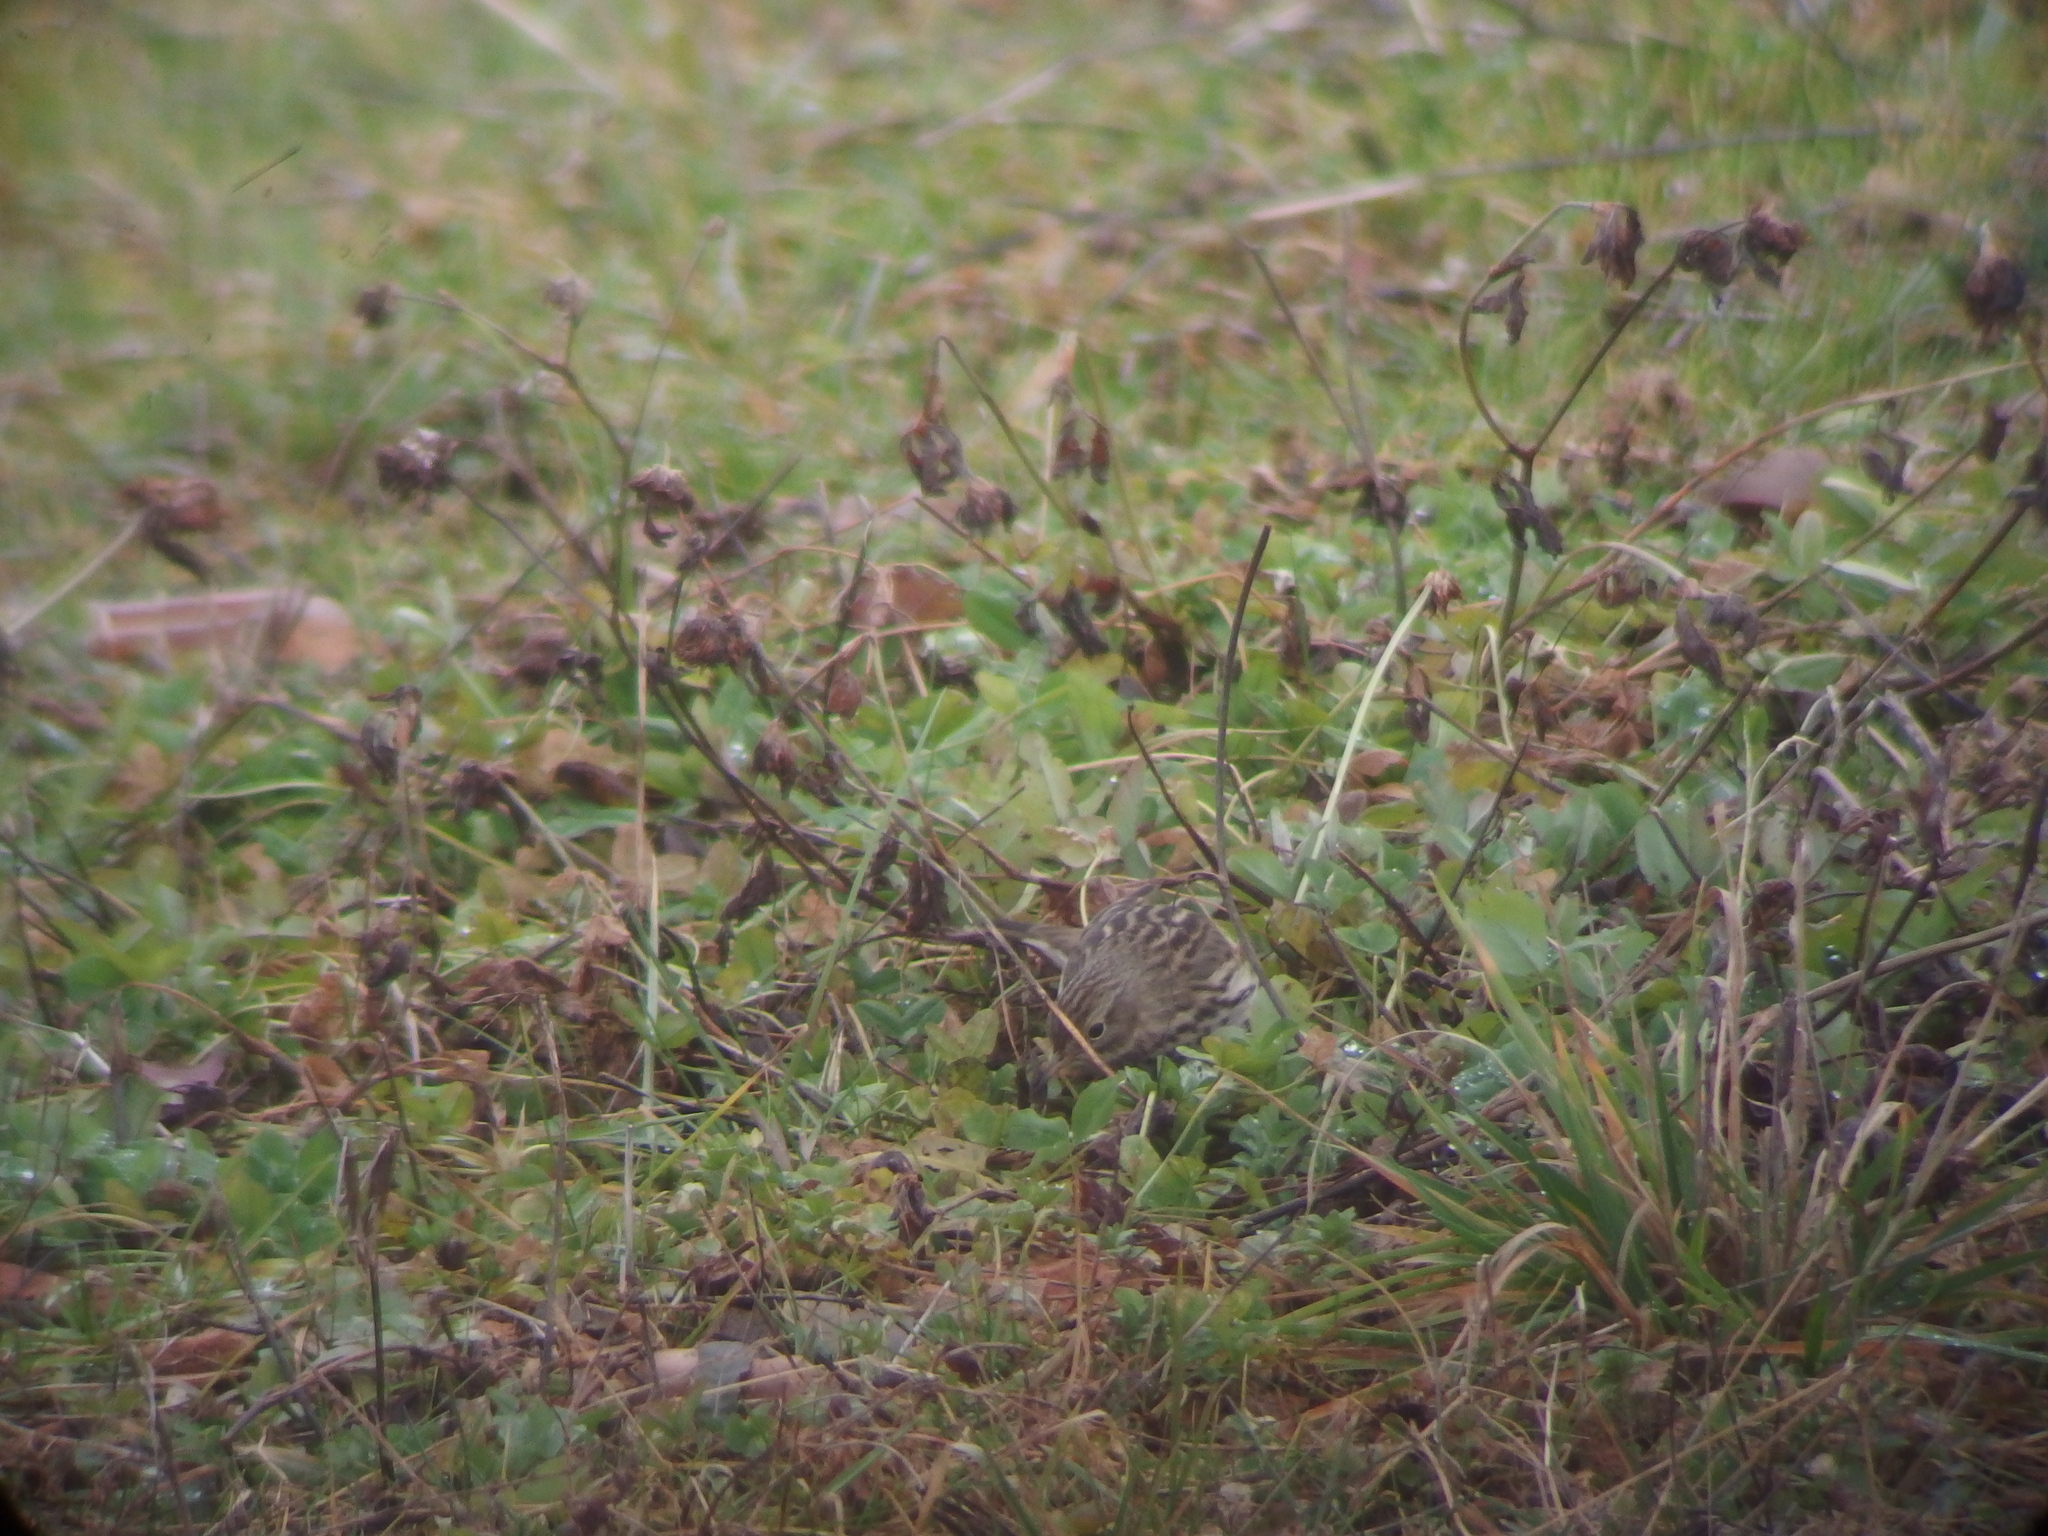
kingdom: Animalia
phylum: Chordata
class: Aves
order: Passeriformes
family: Motacillidae
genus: Anthus
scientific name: Anthus pratensis
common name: Meadow pipit
